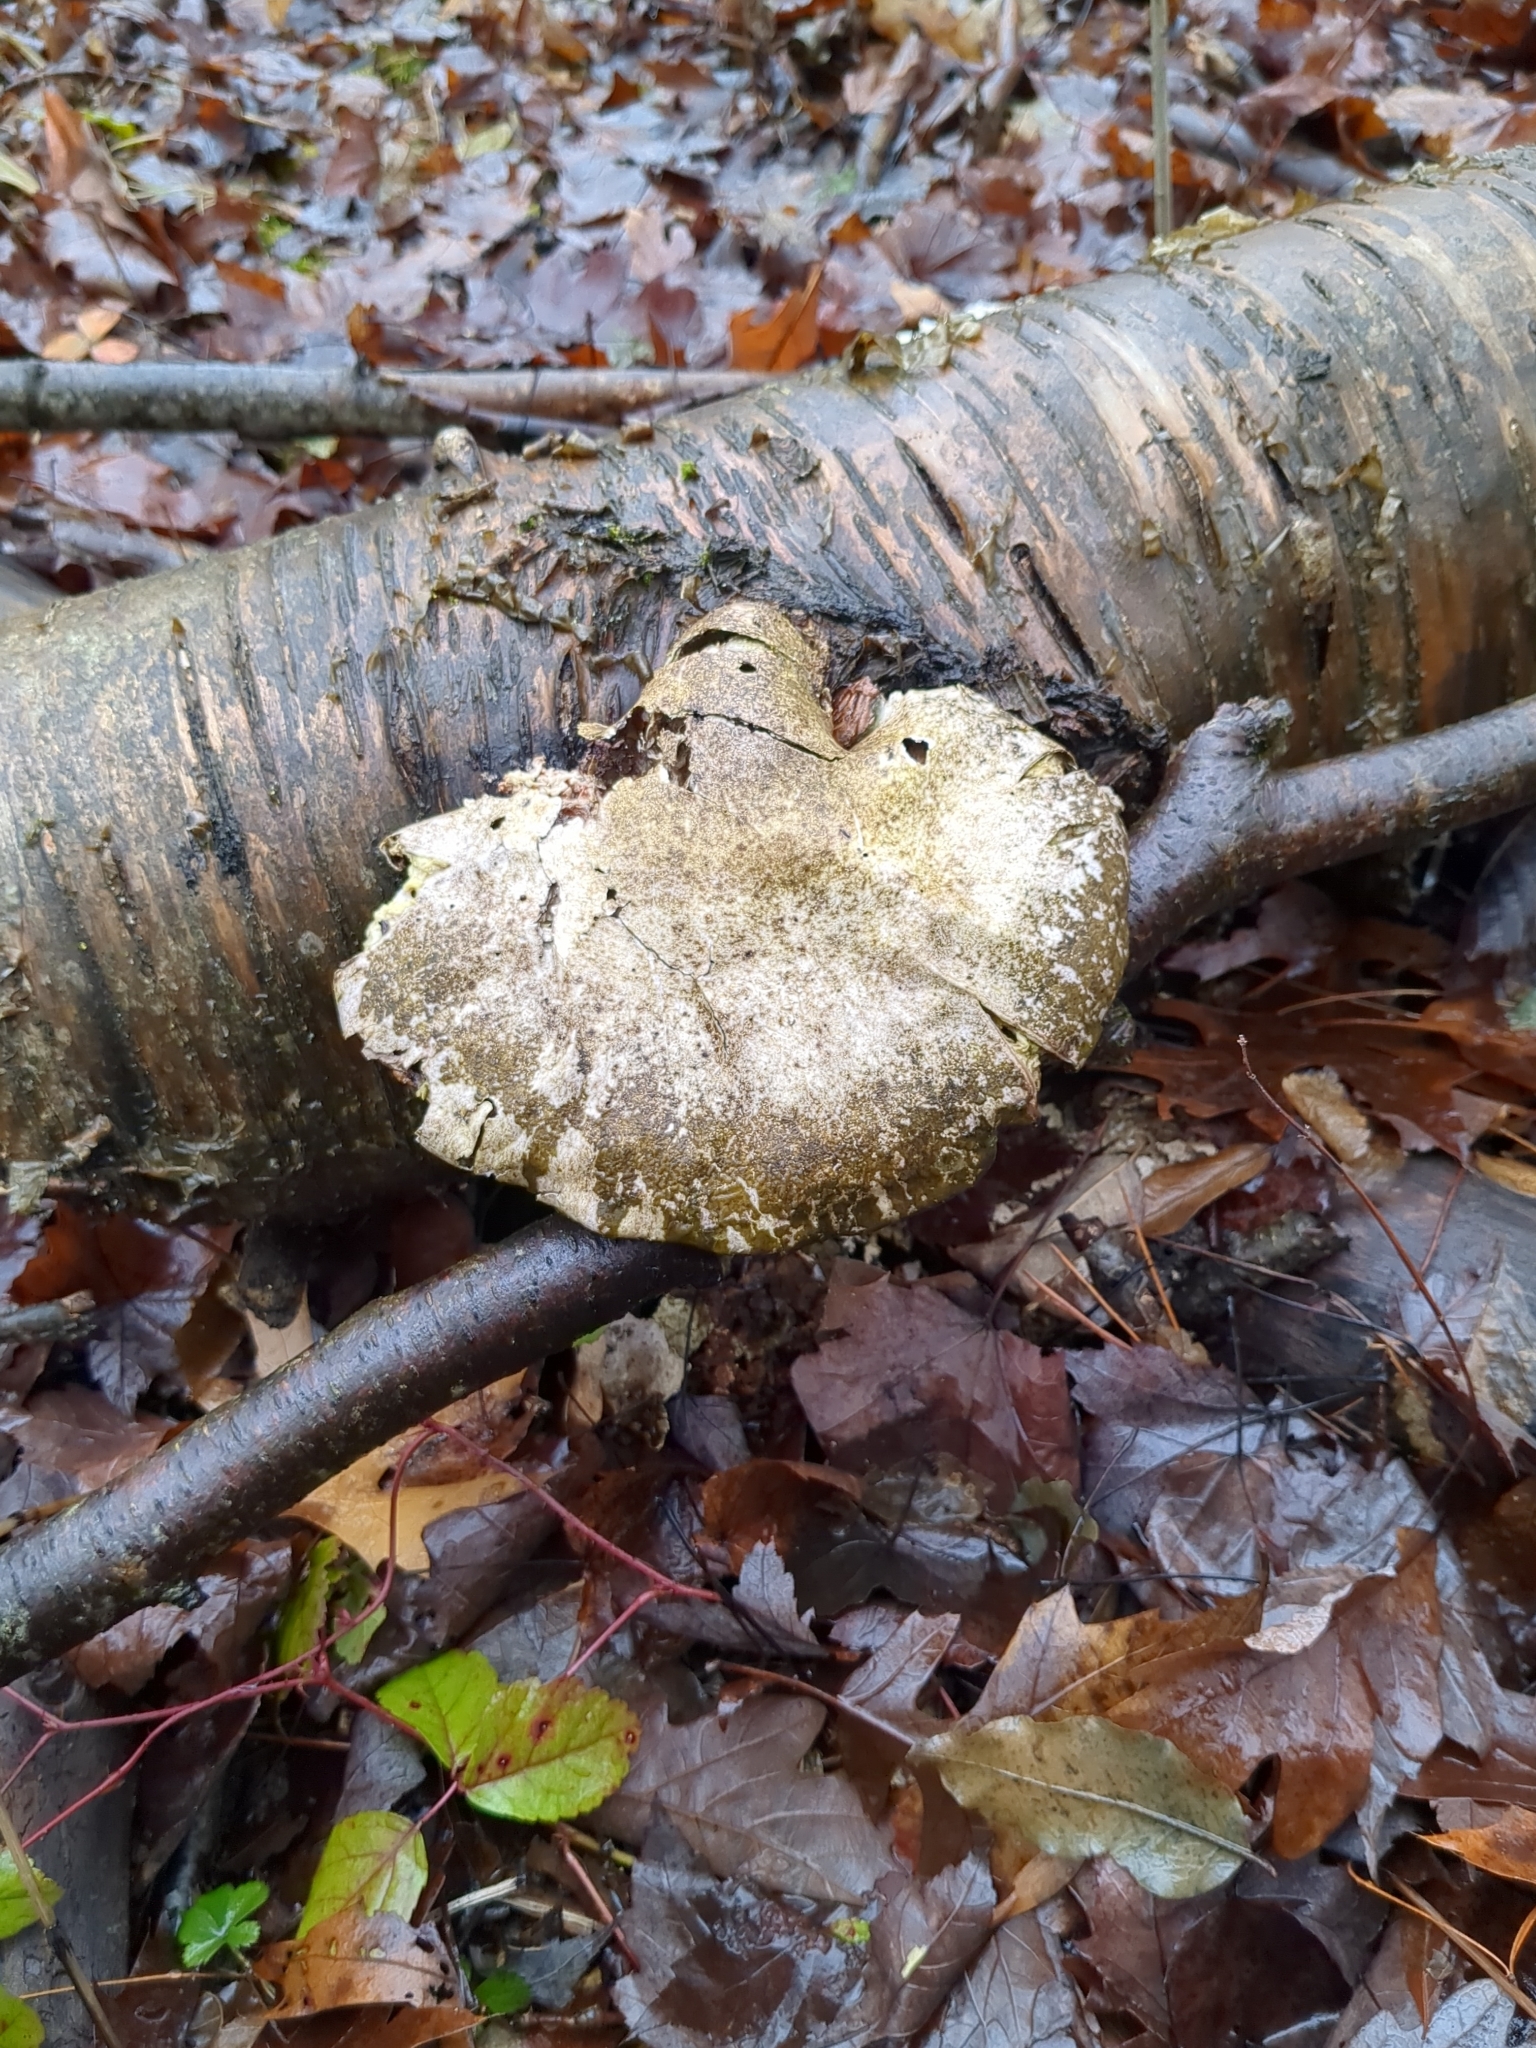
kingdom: Fungi
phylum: Basidiomycota
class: Agaricomycetes
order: Polyporales
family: Fomitopsidaceae
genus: Fomitopsis
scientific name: Fomitopsis betulina
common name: Birch polypore
